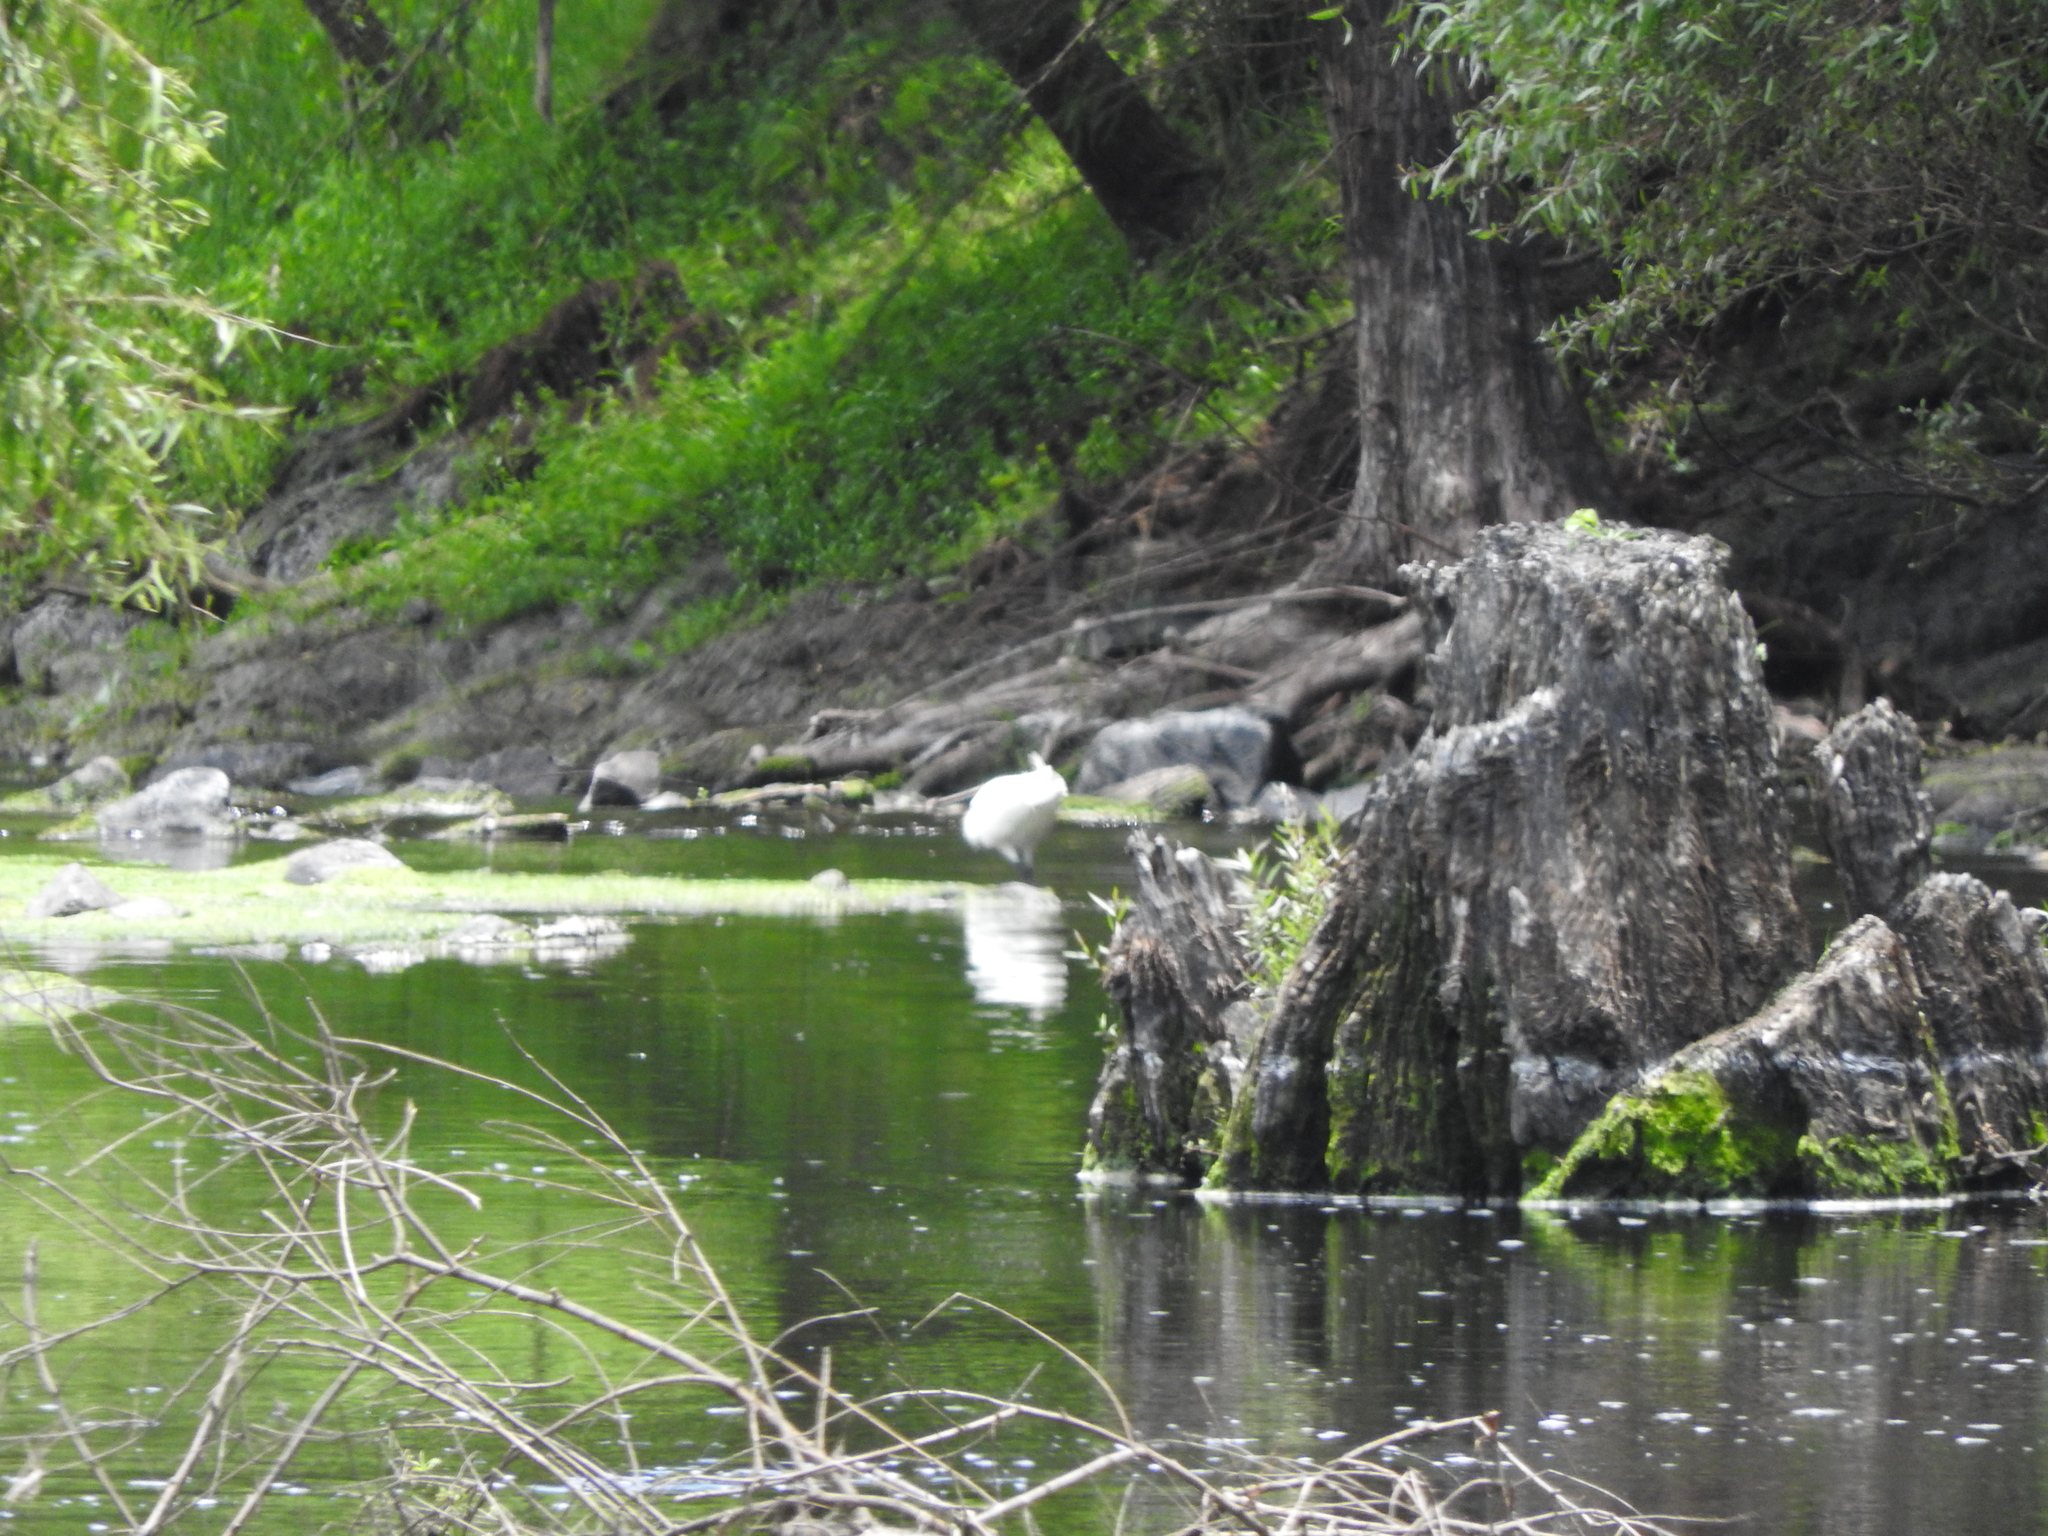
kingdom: Animalia
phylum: Chordata
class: Aves
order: Pelecaniformes
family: Ardeidae
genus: Egretta
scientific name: Egretta
